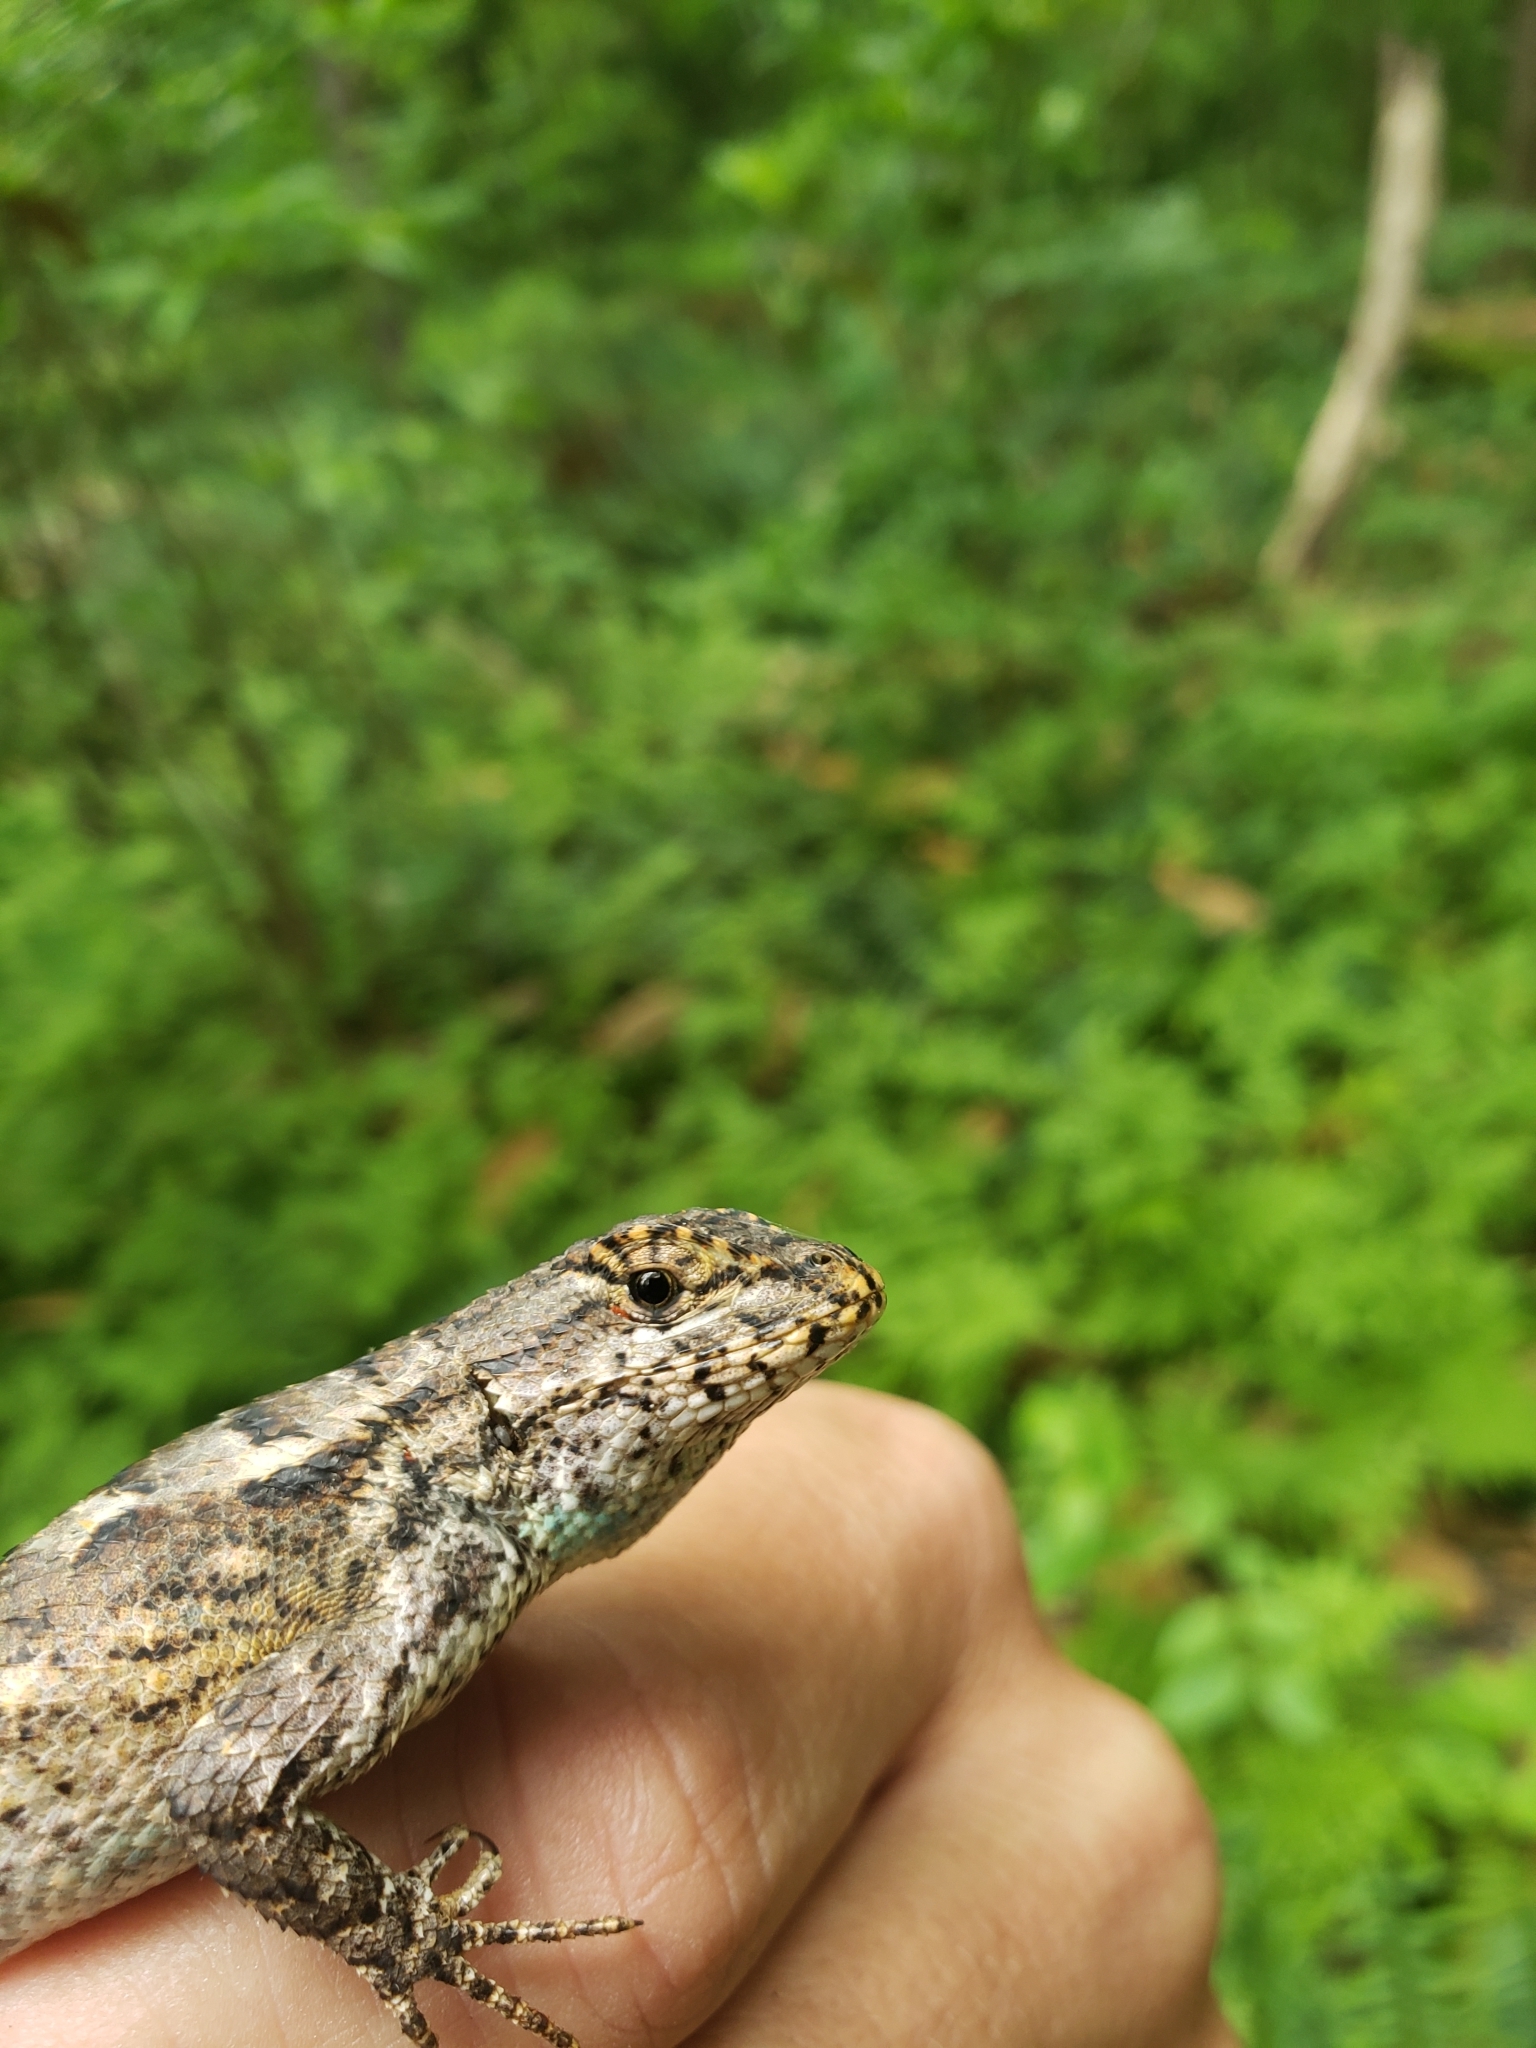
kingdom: Animalia
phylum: Chordata
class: Squamata
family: Phrynosomatidae
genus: Sceloporus
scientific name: Sceloporus consobrinus
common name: Southern prairie lizard
